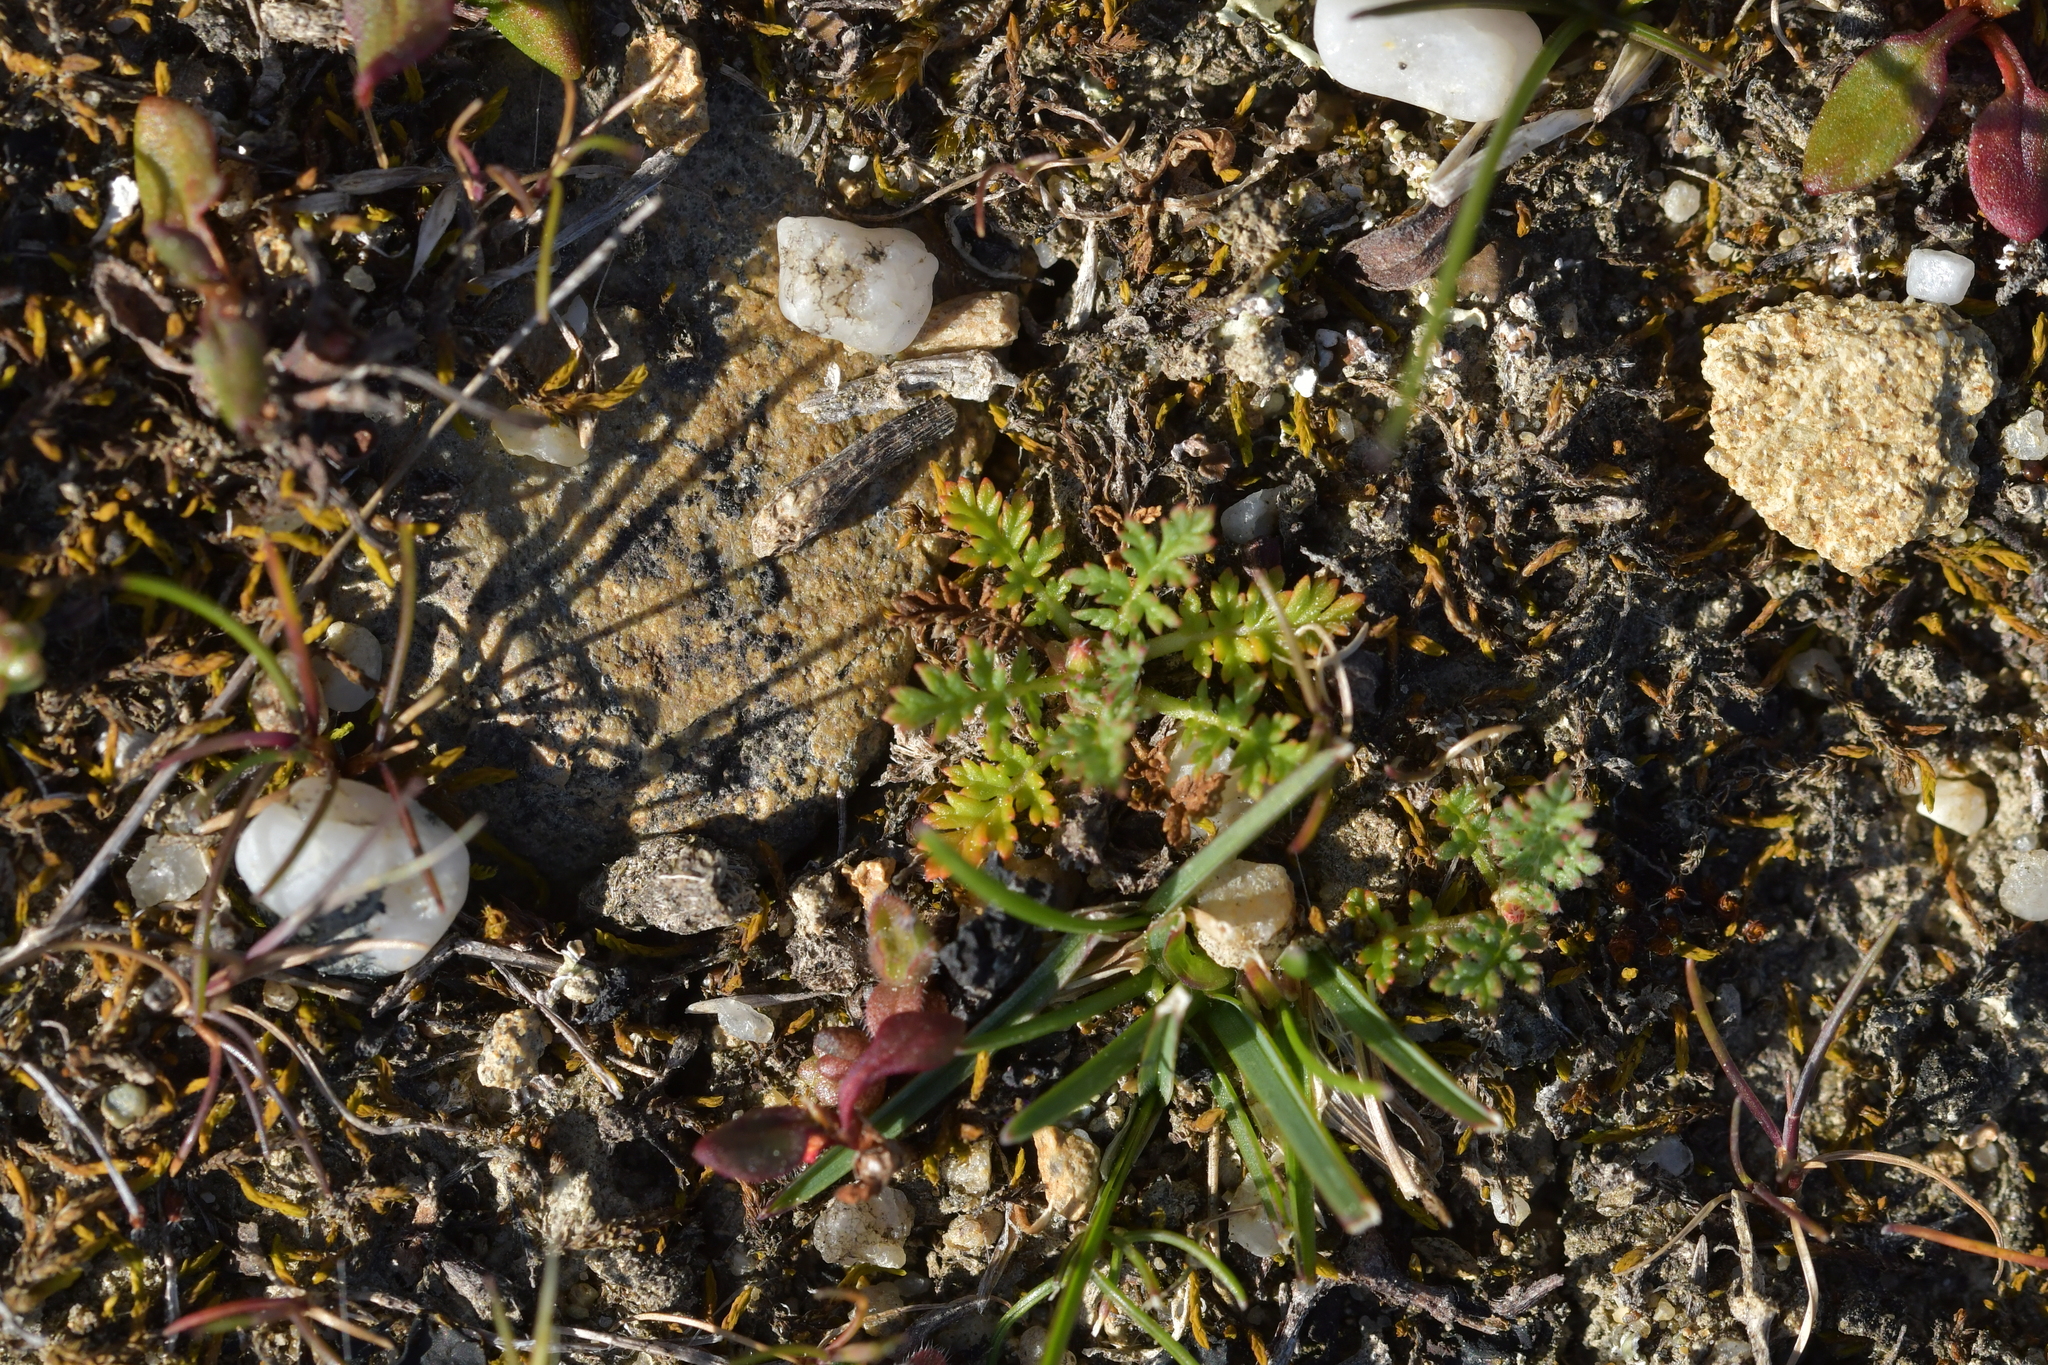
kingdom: Plantae
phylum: Tracheophyta
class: Magnoliopsida
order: Geraniales
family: Geraniaceae
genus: Erodium
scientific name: Erodium cicutarium
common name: Common stork's-bill
